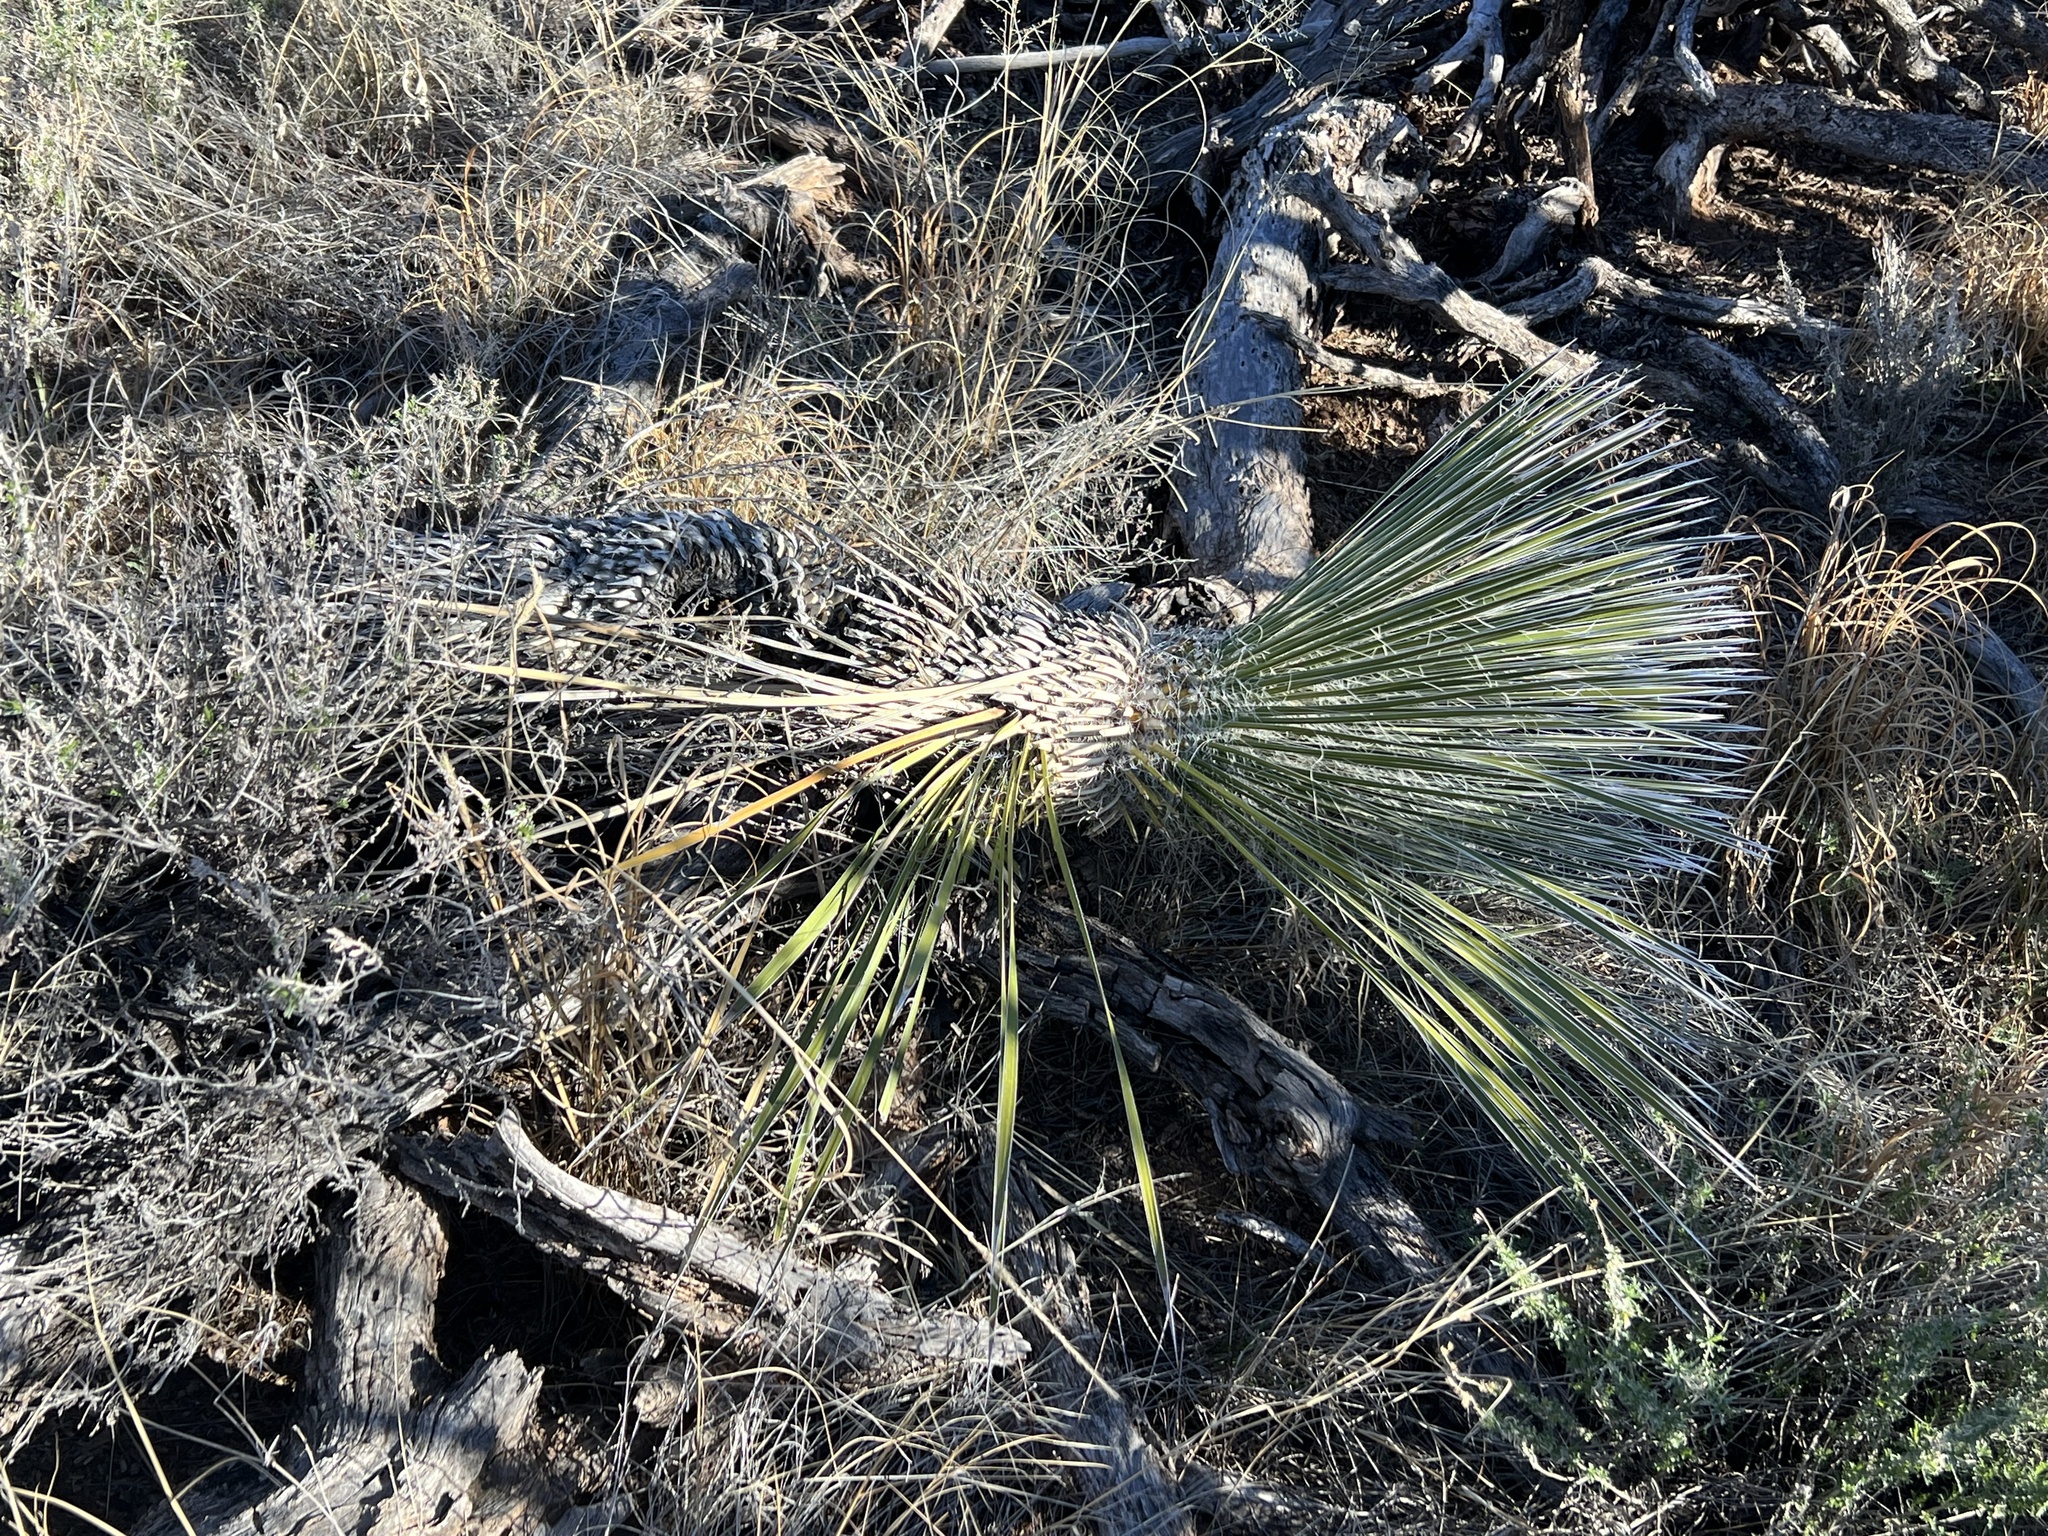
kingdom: Plantae
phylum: Tracheophyta
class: Liliopsida
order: Asparagales
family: Asparagaceae
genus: Yucca
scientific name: Yucca elata
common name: Palmella
